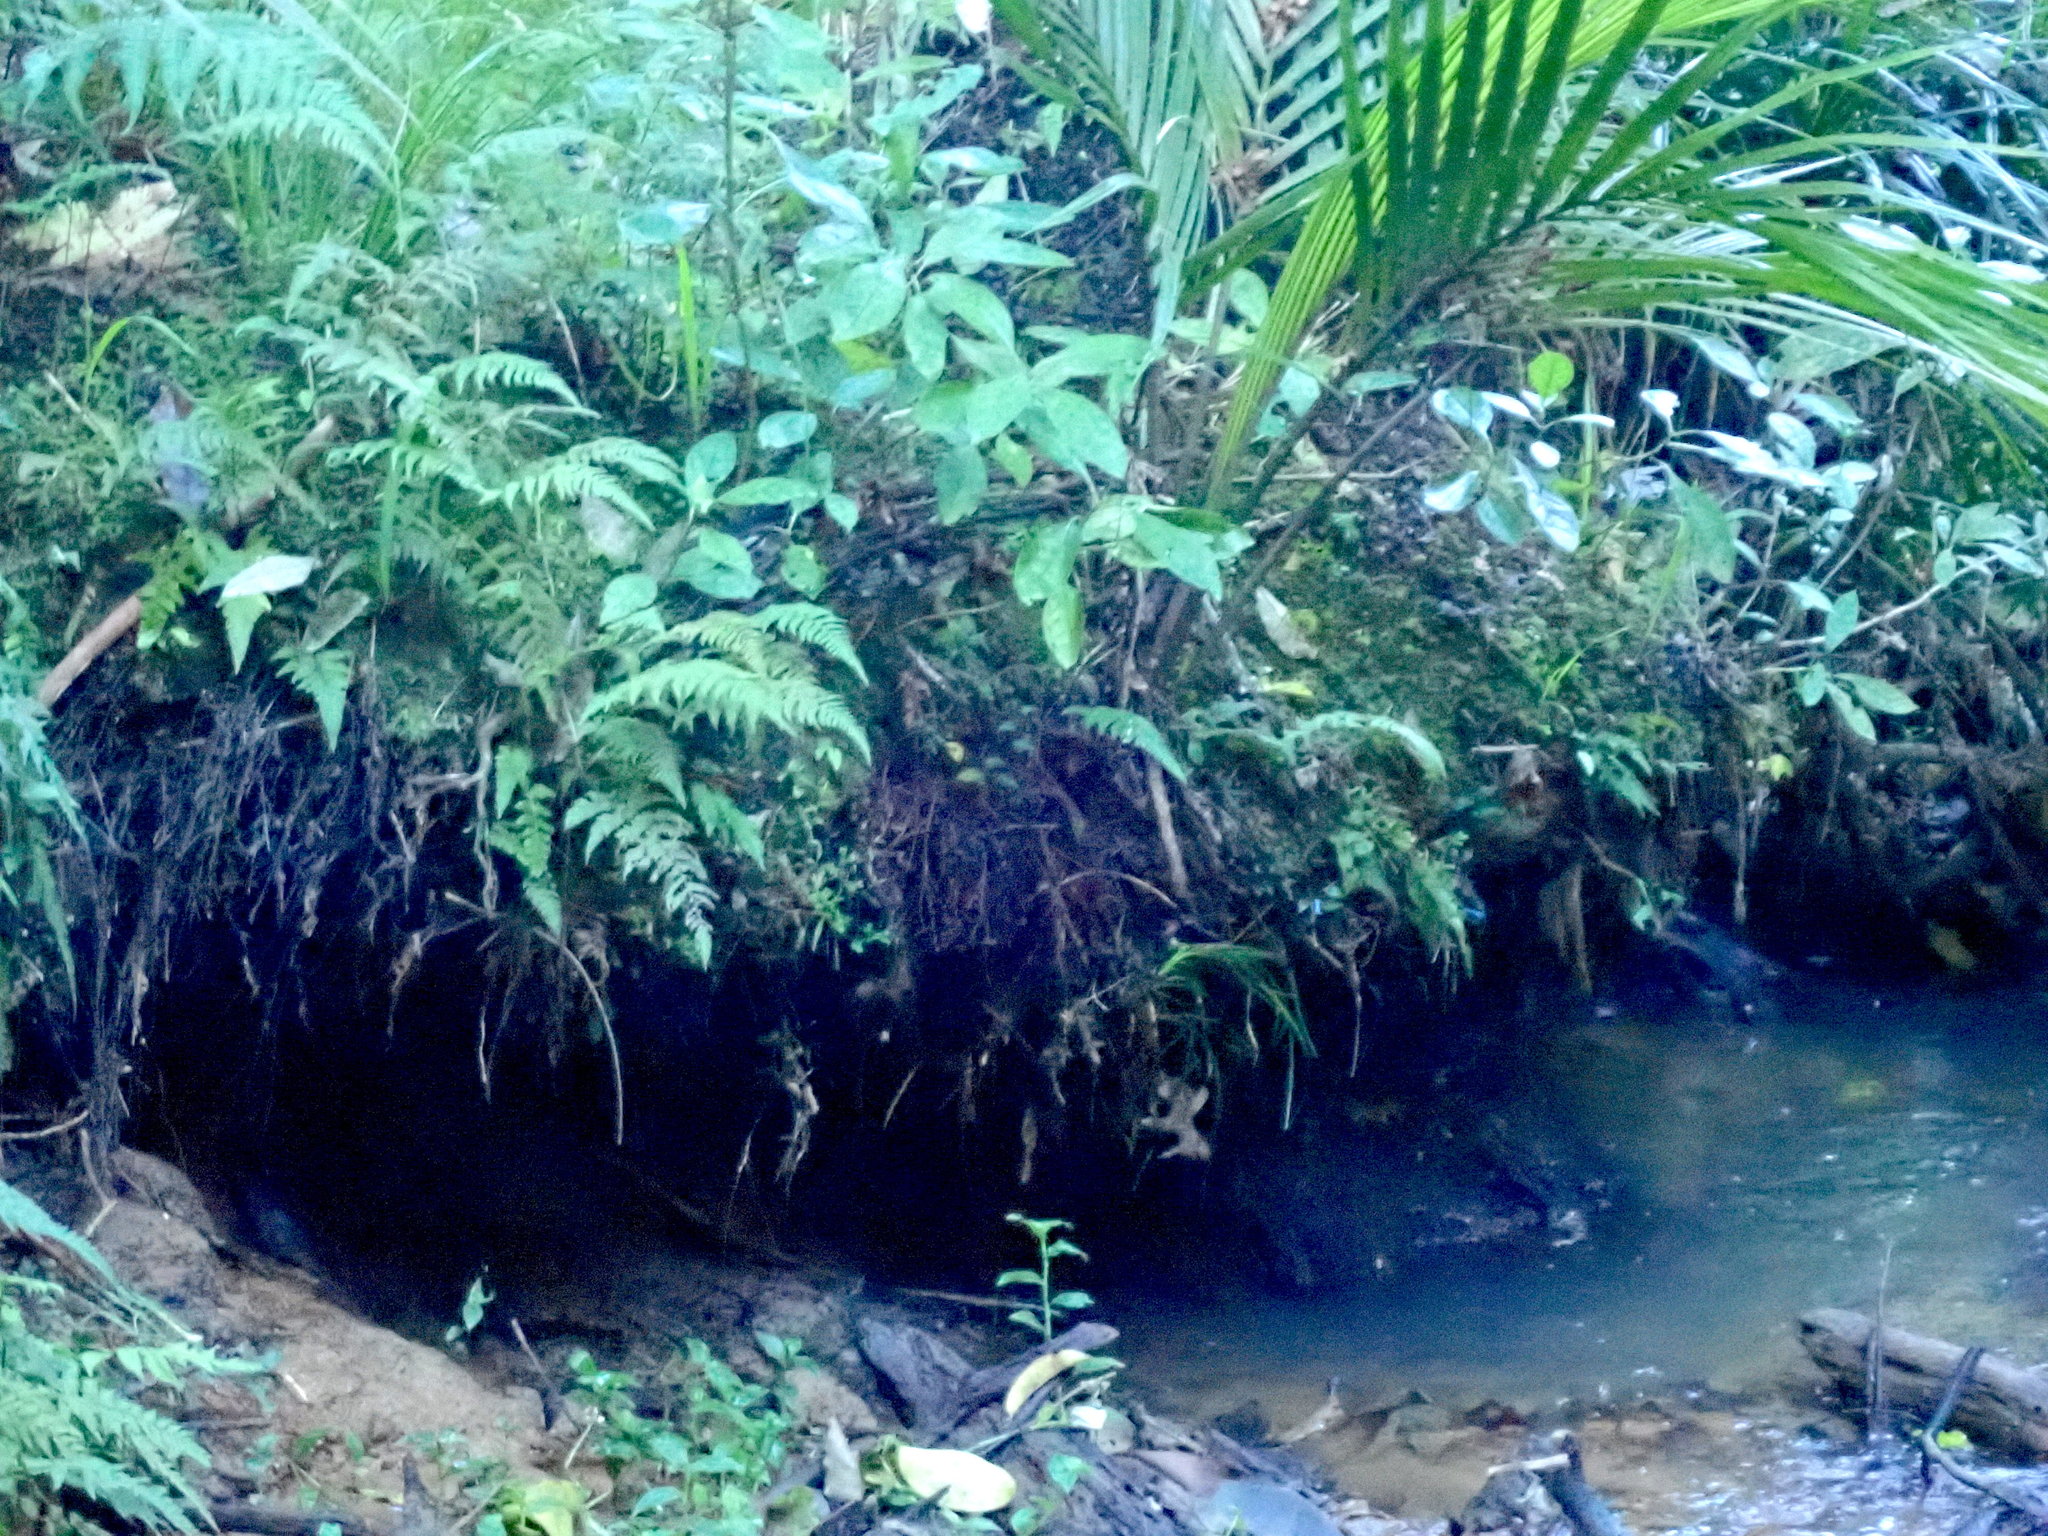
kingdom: Plantae
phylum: Tracheophyta
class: Liliopsida
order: Arecales
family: Arecaceae
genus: Rhopalostylis
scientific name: Rhopalostylis sapida
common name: Feather-duster palm
